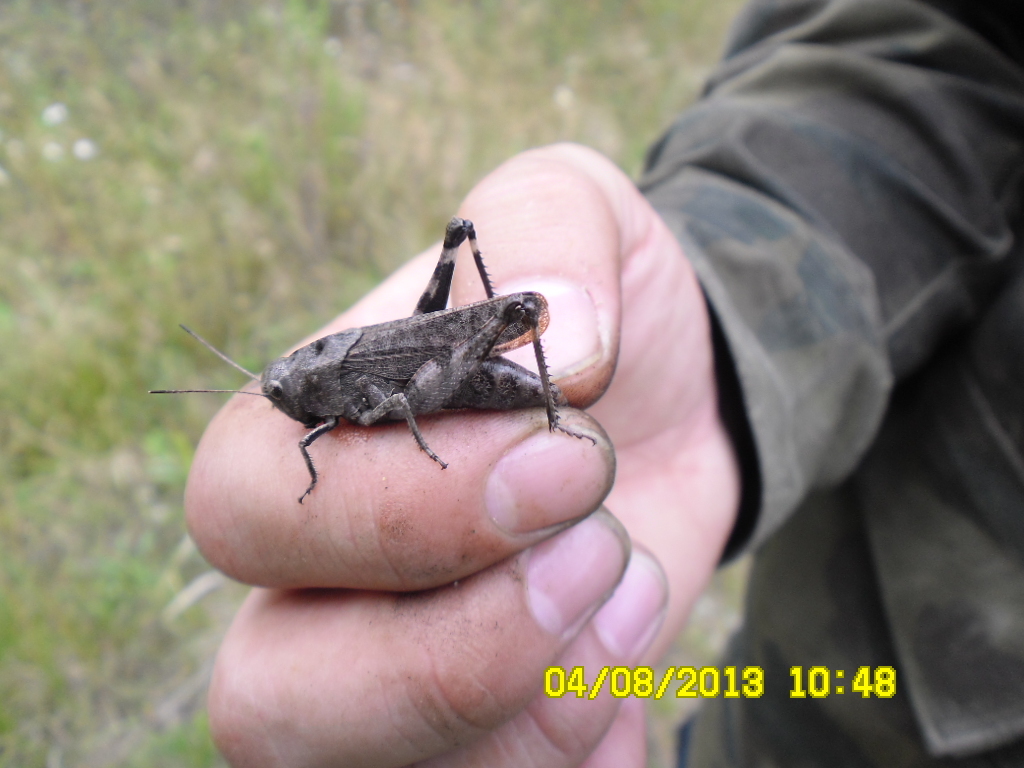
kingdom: Animalia
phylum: Arthropoda
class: Insecta
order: Orthoptera
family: Acrididae
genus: Psophus
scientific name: Psophus stridulus
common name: Rattle grasshopper
